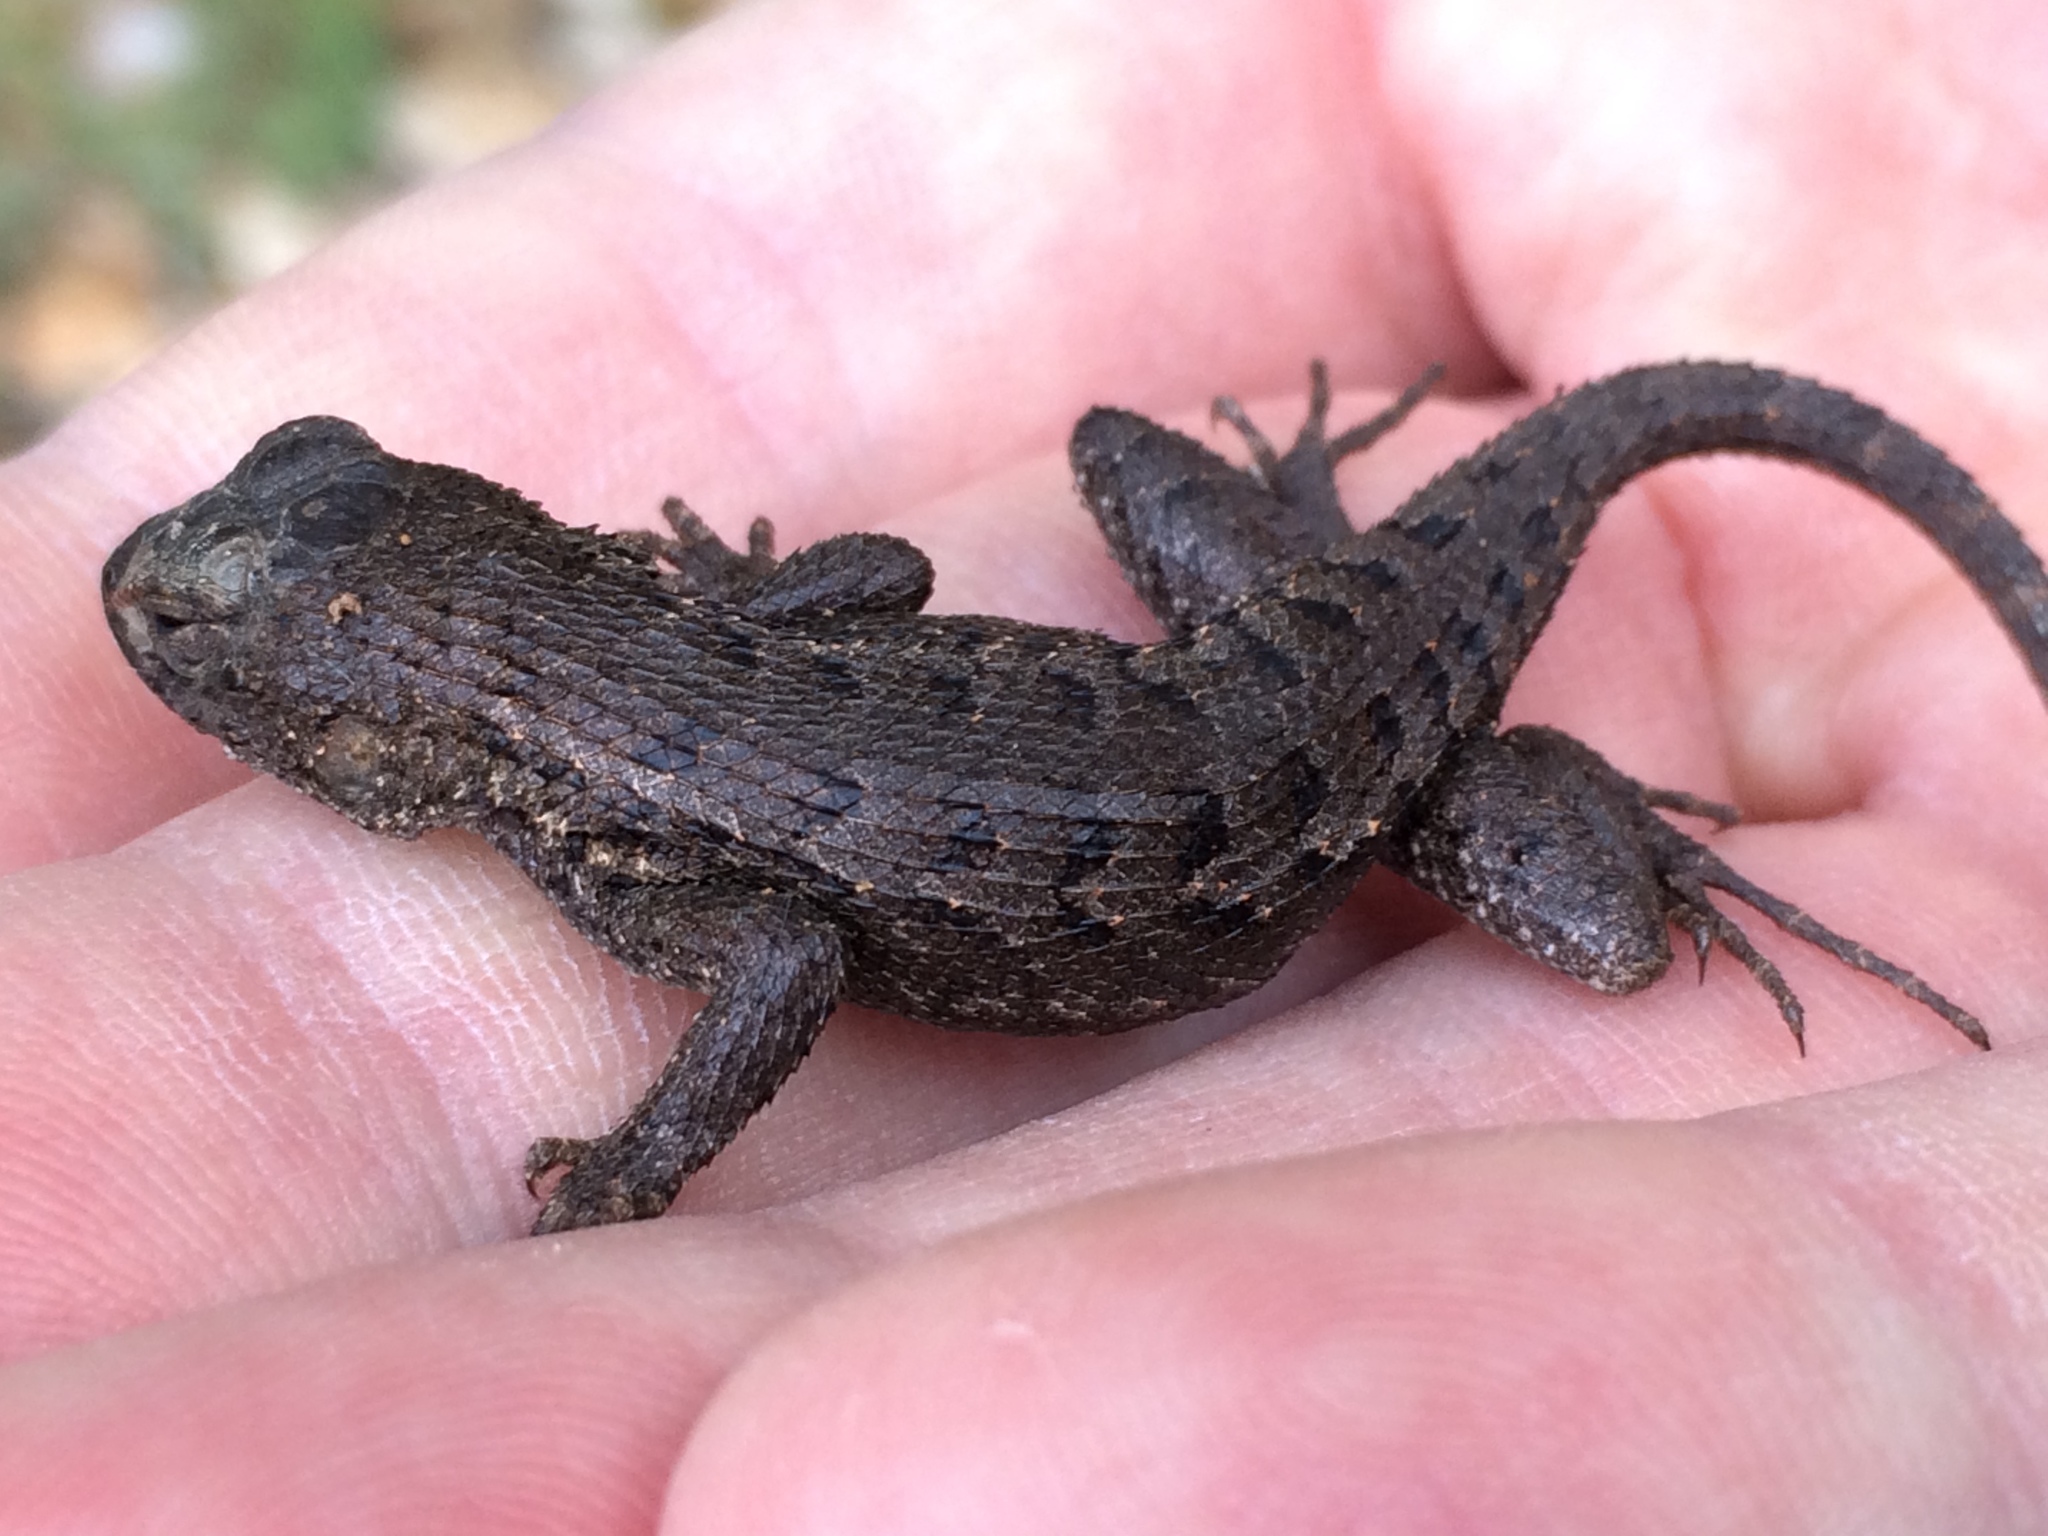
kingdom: Animalia
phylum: Chordata
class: Squamata
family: Phrynosomatidae
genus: Sceloporus
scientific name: Sceloporus occidentalis
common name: Western fence lizard
